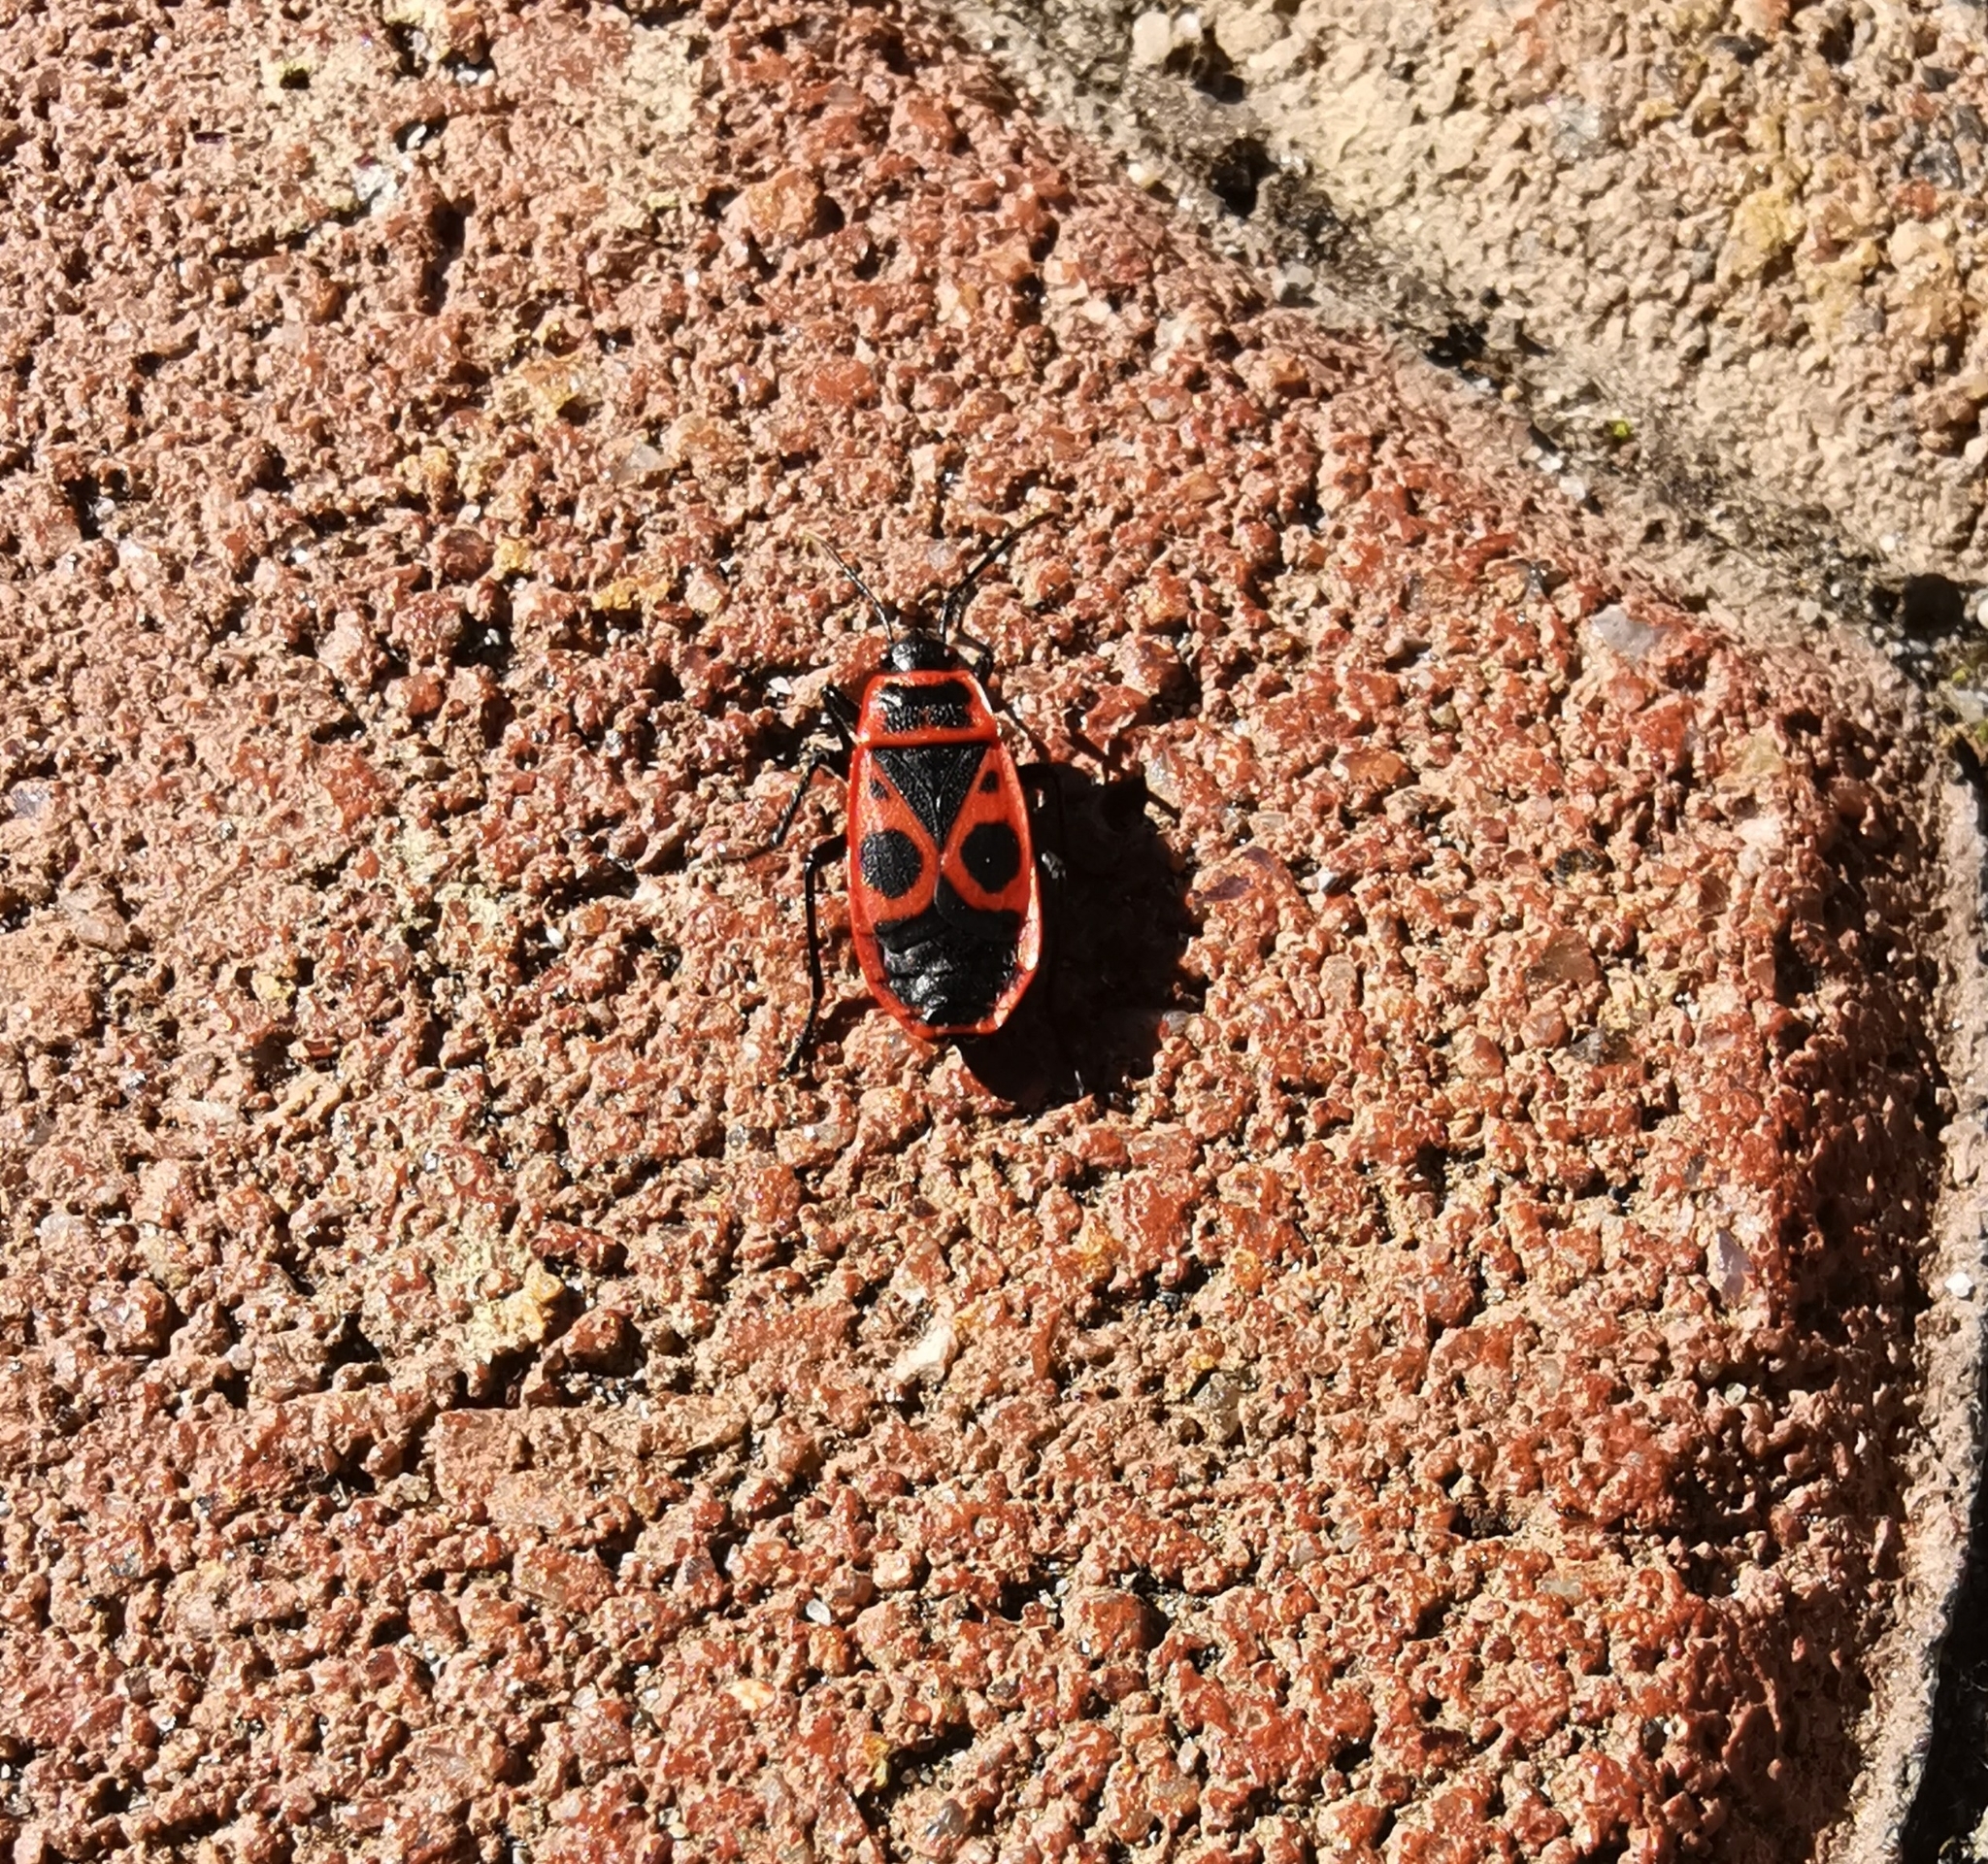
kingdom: Animalia
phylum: Arthropoda
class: Insecta
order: Hemiptera
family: Pyrrhocoridae
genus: Pyrrhocoris
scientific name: Pyrrhocoris apterus
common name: Firebug
